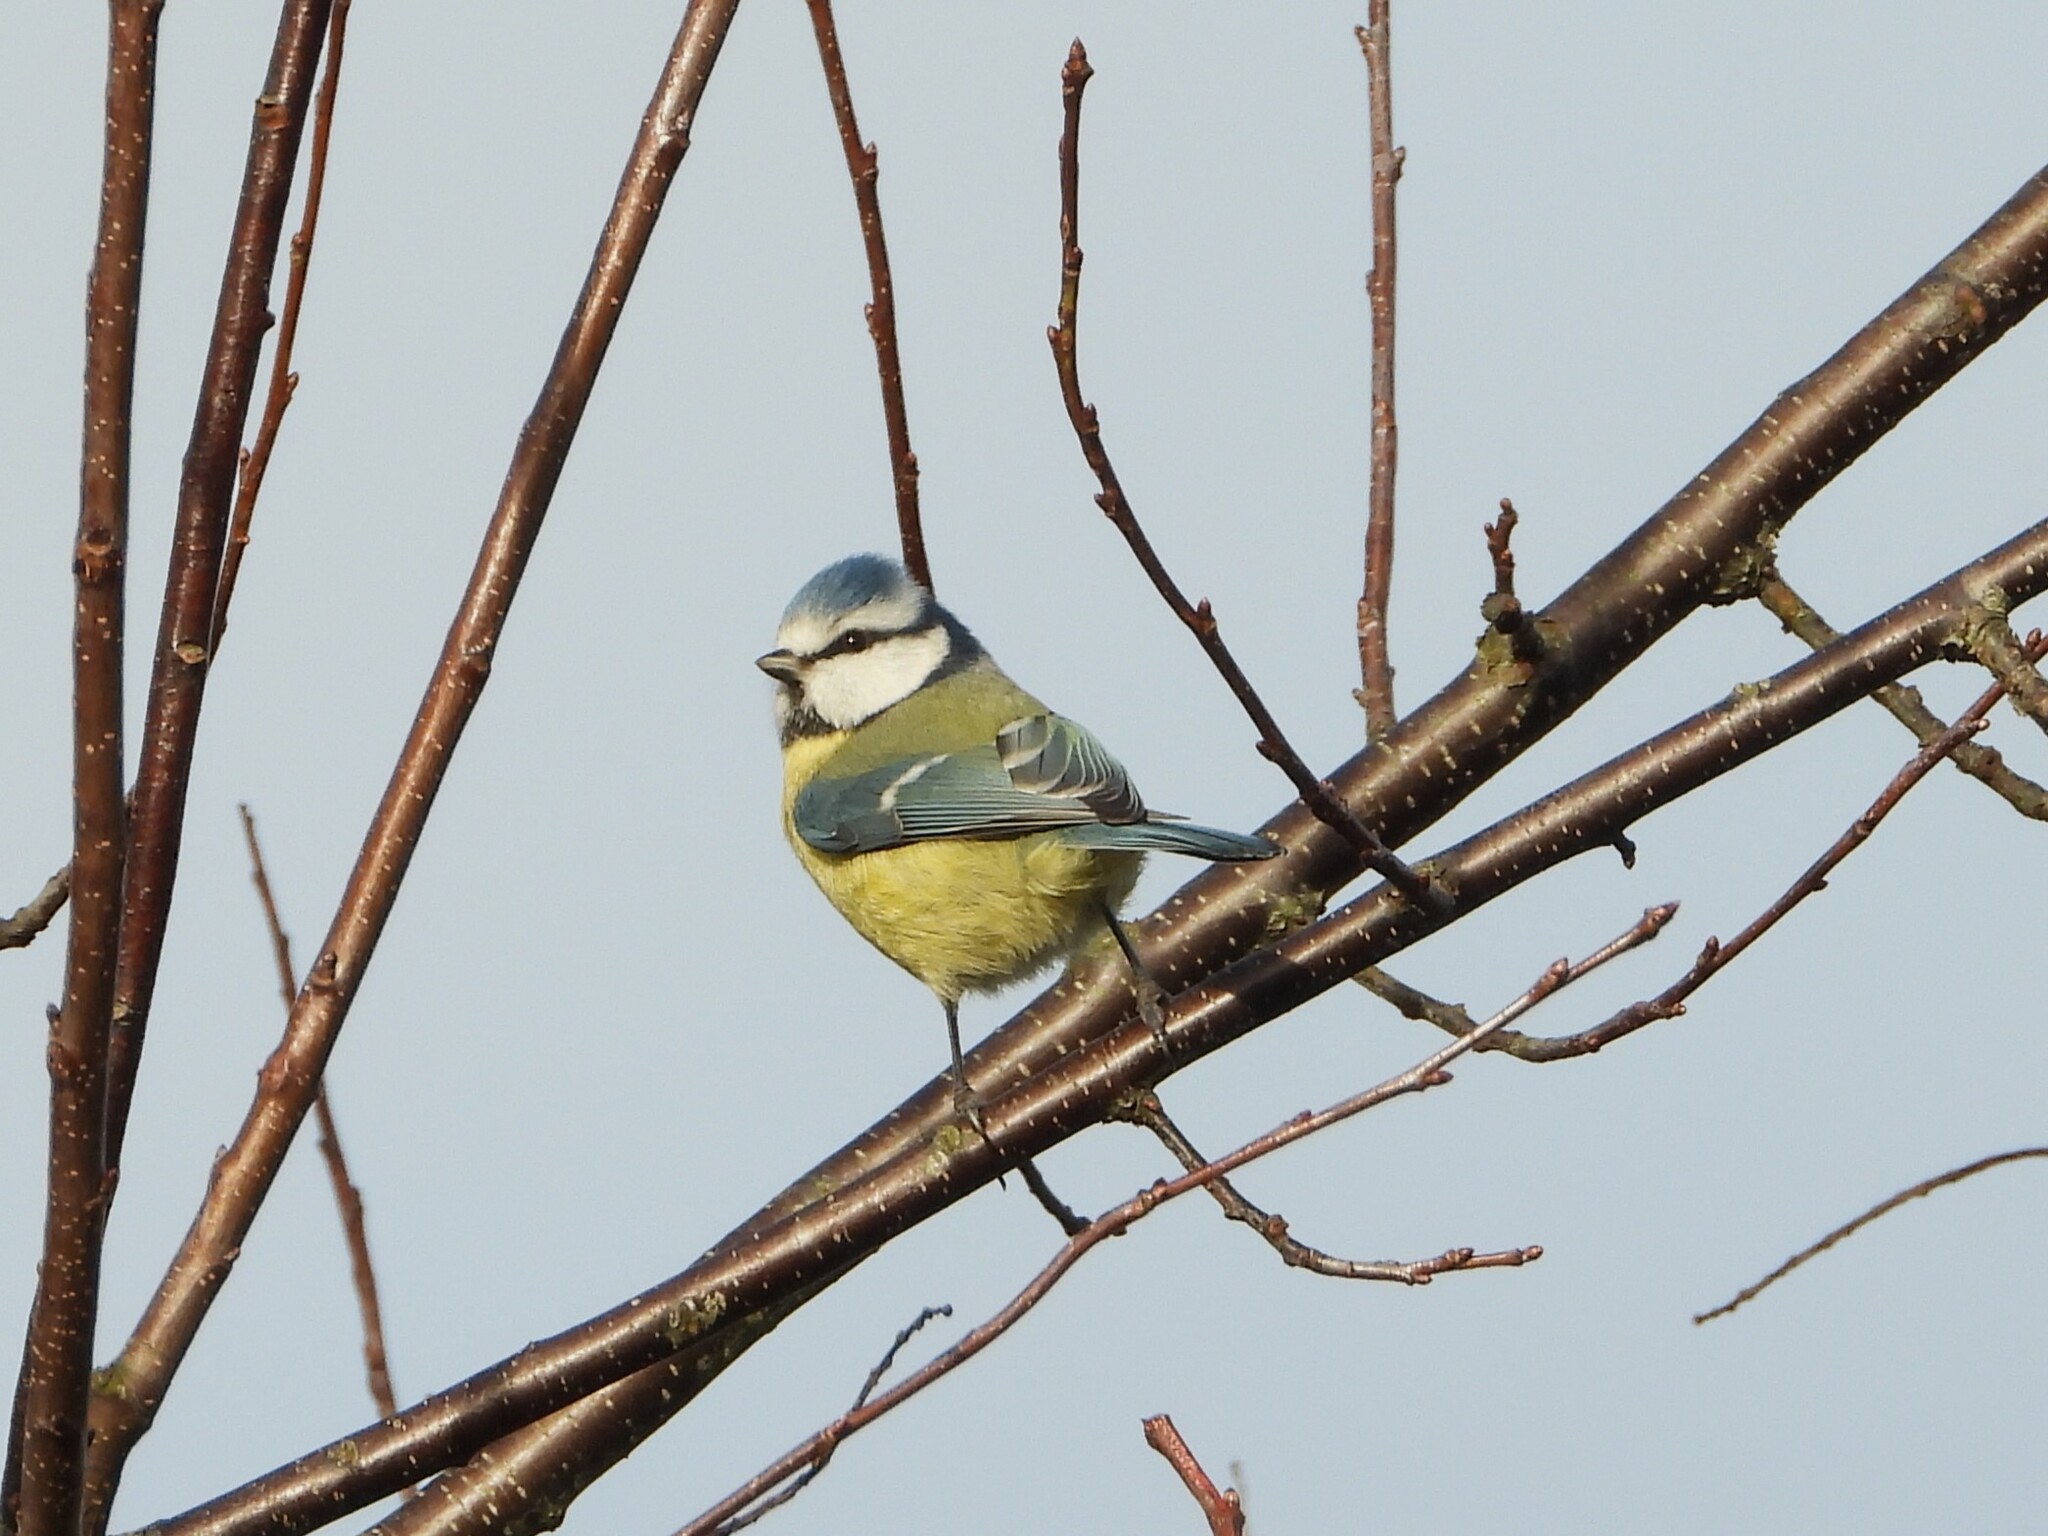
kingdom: Animalia
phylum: Chordata
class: Aves
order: Passeriformes
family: Paridae
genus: Cyanistes
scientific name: Cyanistes caeruleus
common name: Eurasian blue tit
